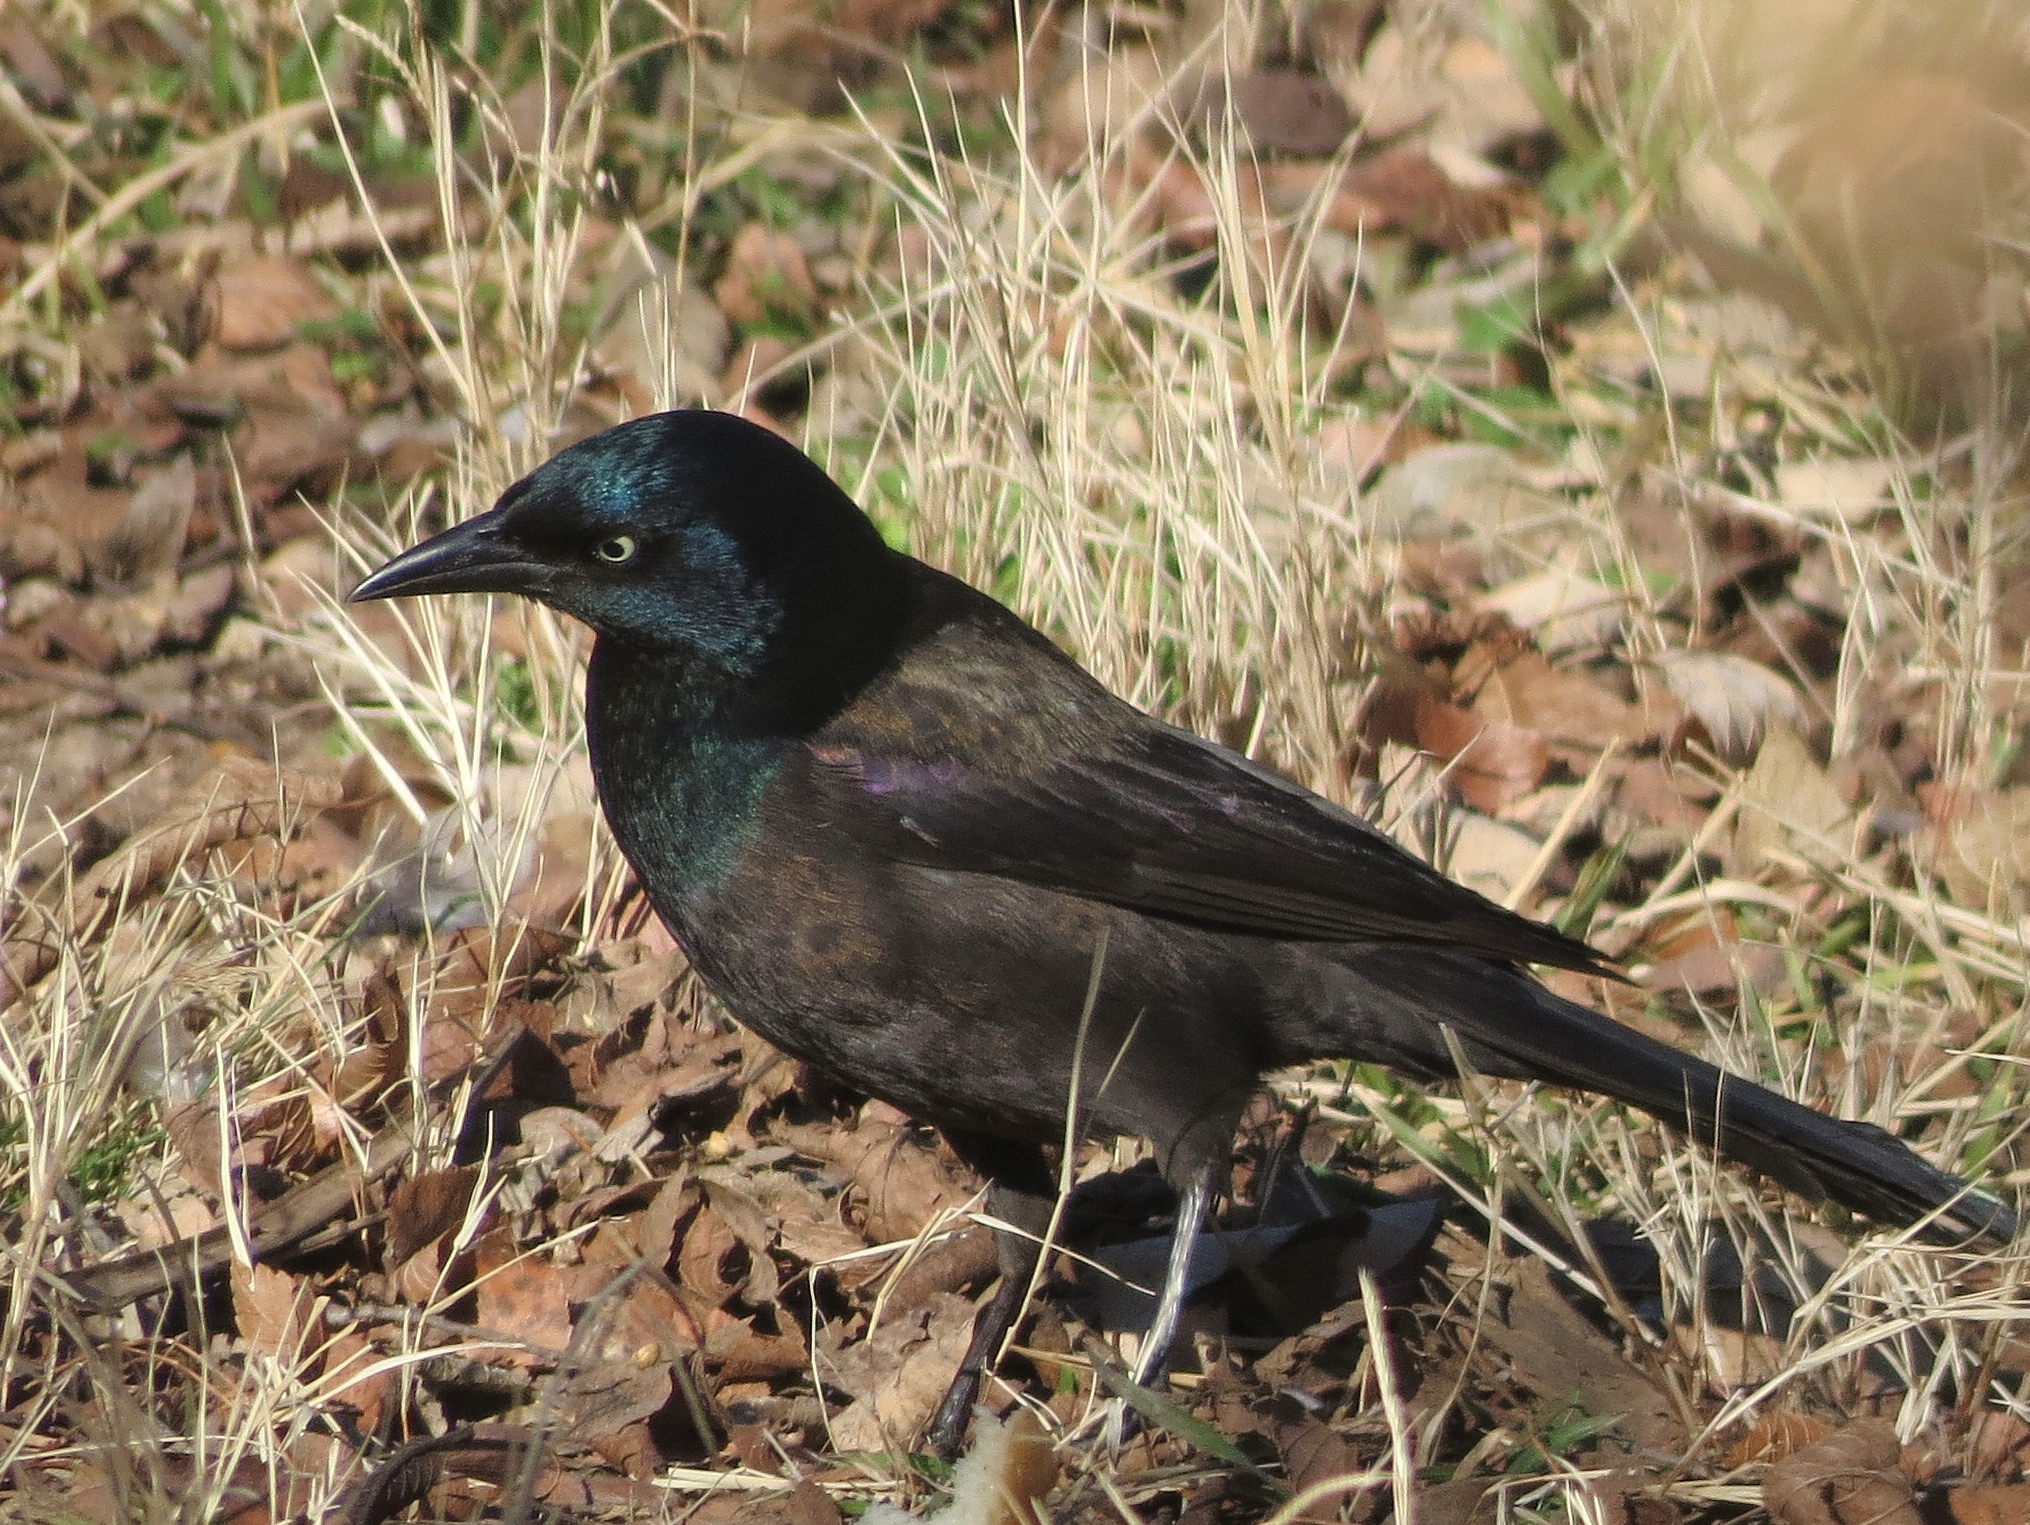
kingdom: Animalia
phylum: Chordata
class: Aves
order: Passeriformes
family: Icteridae
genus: Quiscalus
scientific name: Quiscalus quiscula
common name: Common grackle
